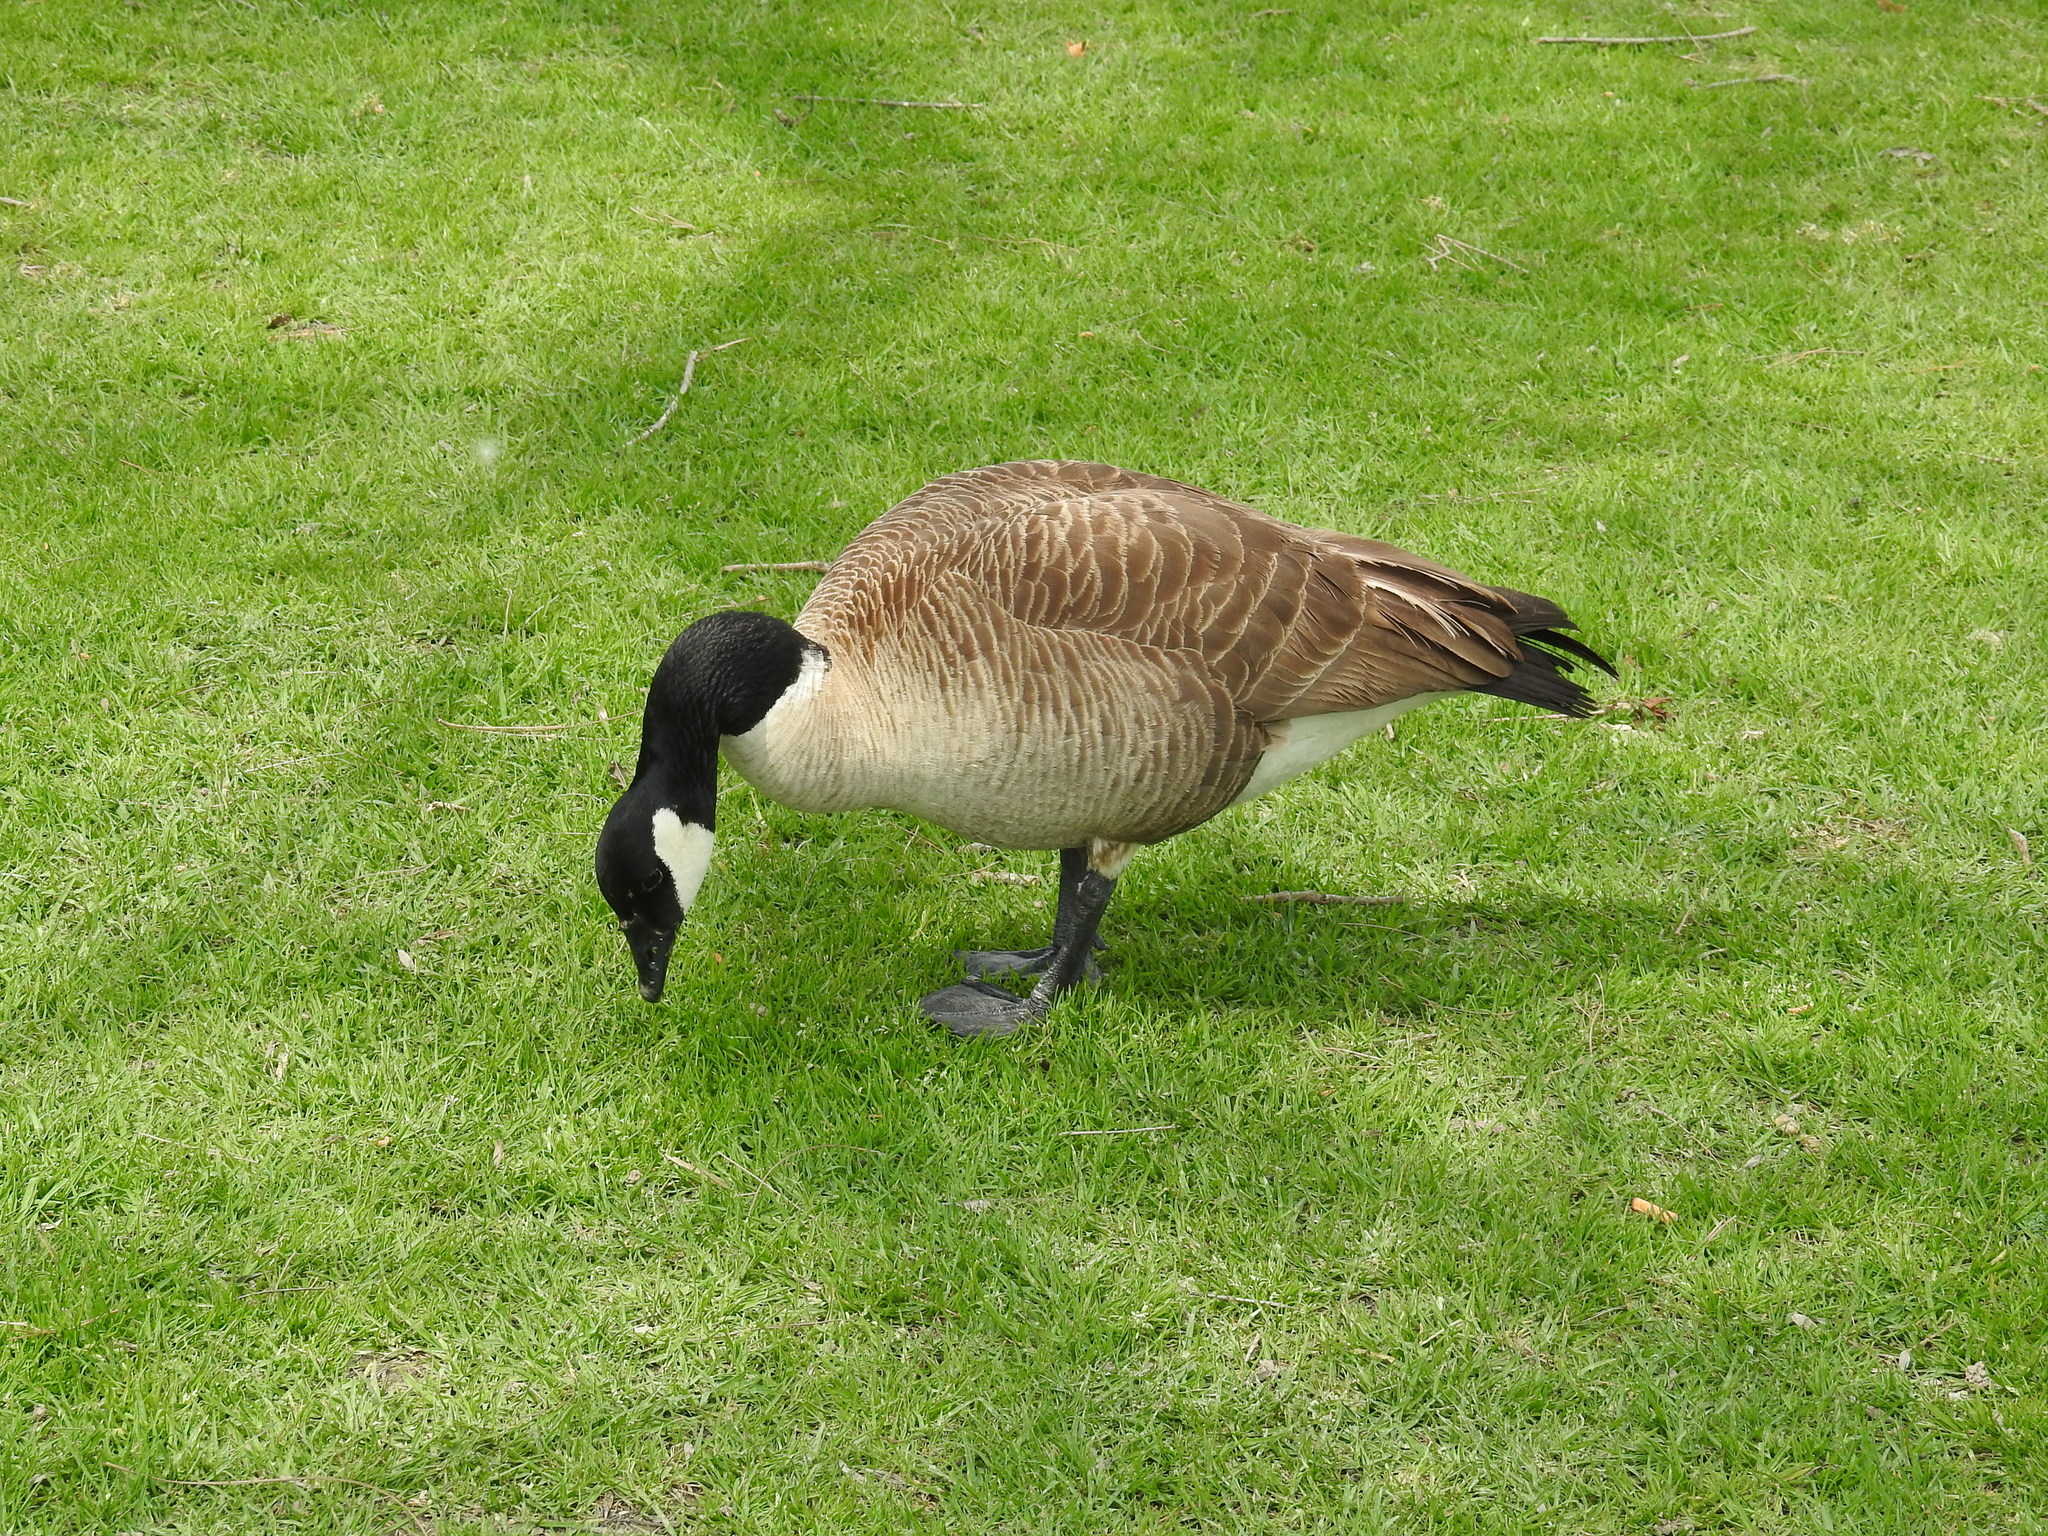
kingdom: Animalia
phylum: Chordata
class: Aves
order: Anseriformes
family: Anatidae
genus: Branta
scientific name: Branta canadensis
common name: Canada goose
